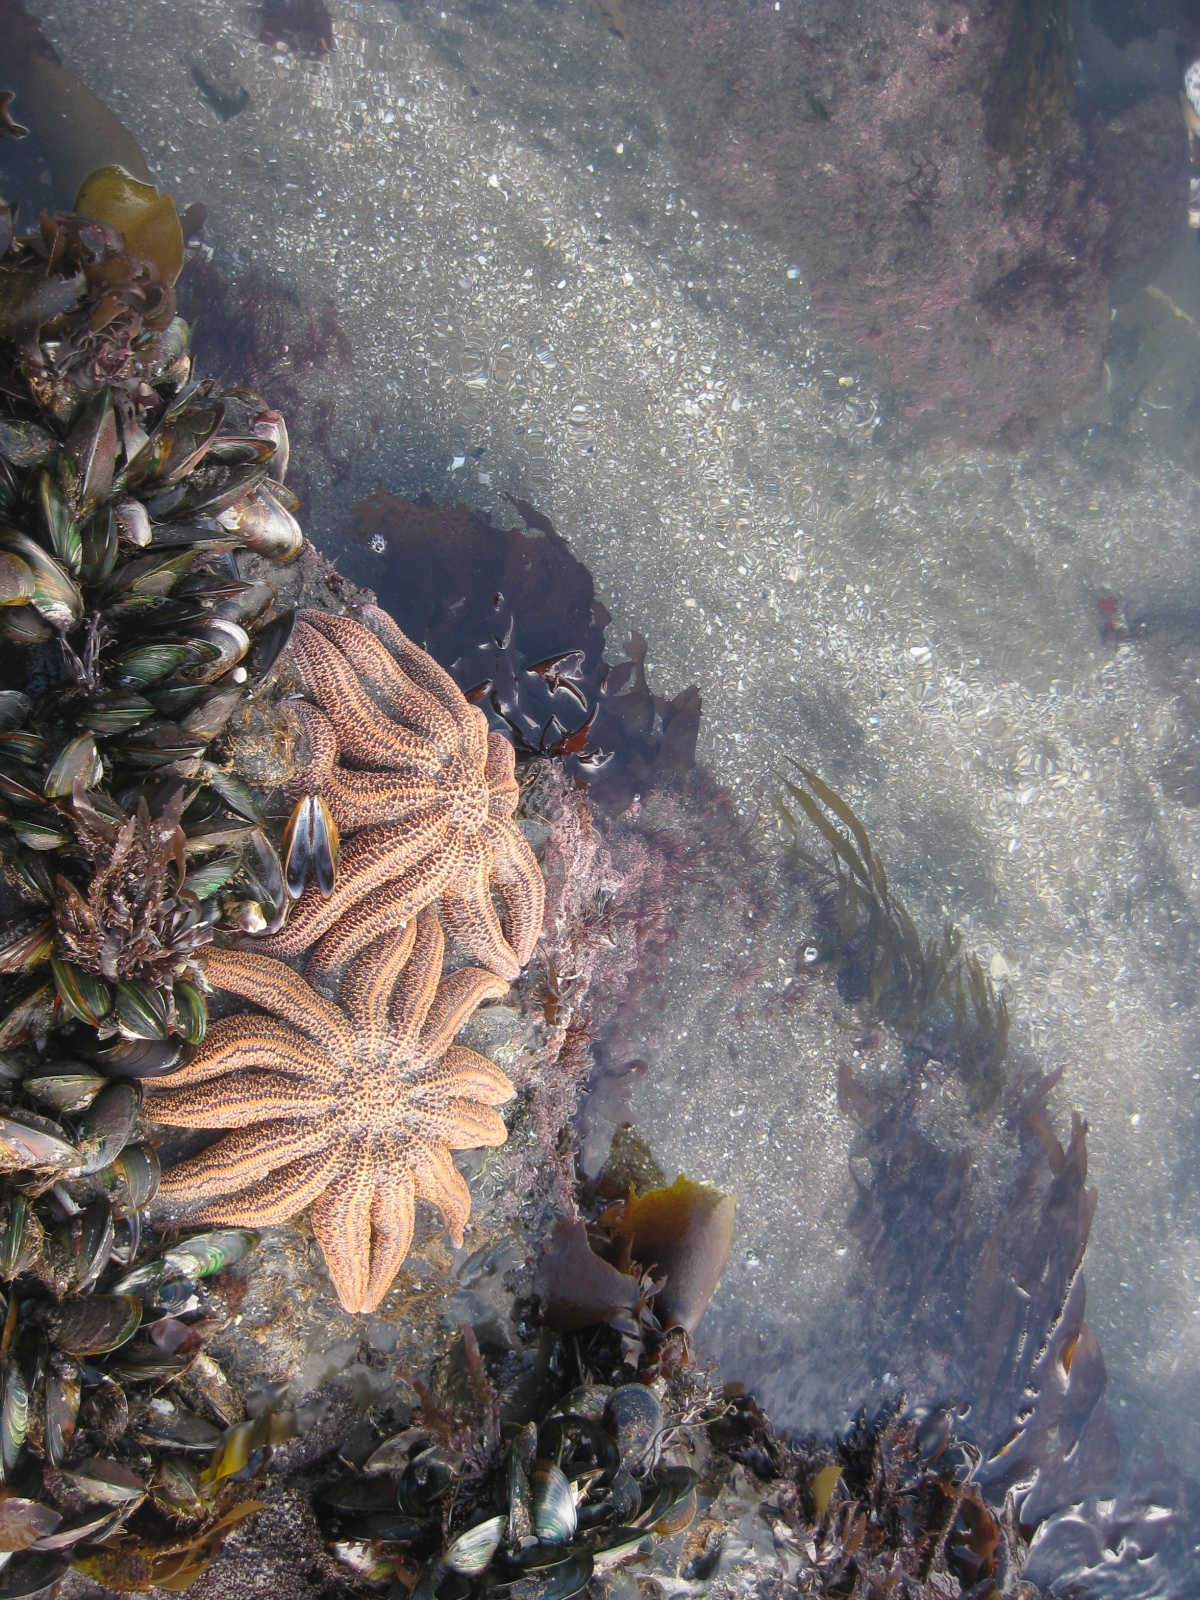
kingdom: Animalia
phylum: Echinodermata
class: Asteroidea
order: Forcipulatida
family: Stichasteridae
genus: Stichaster
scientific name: Stichaster australis
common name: Reef starfish
